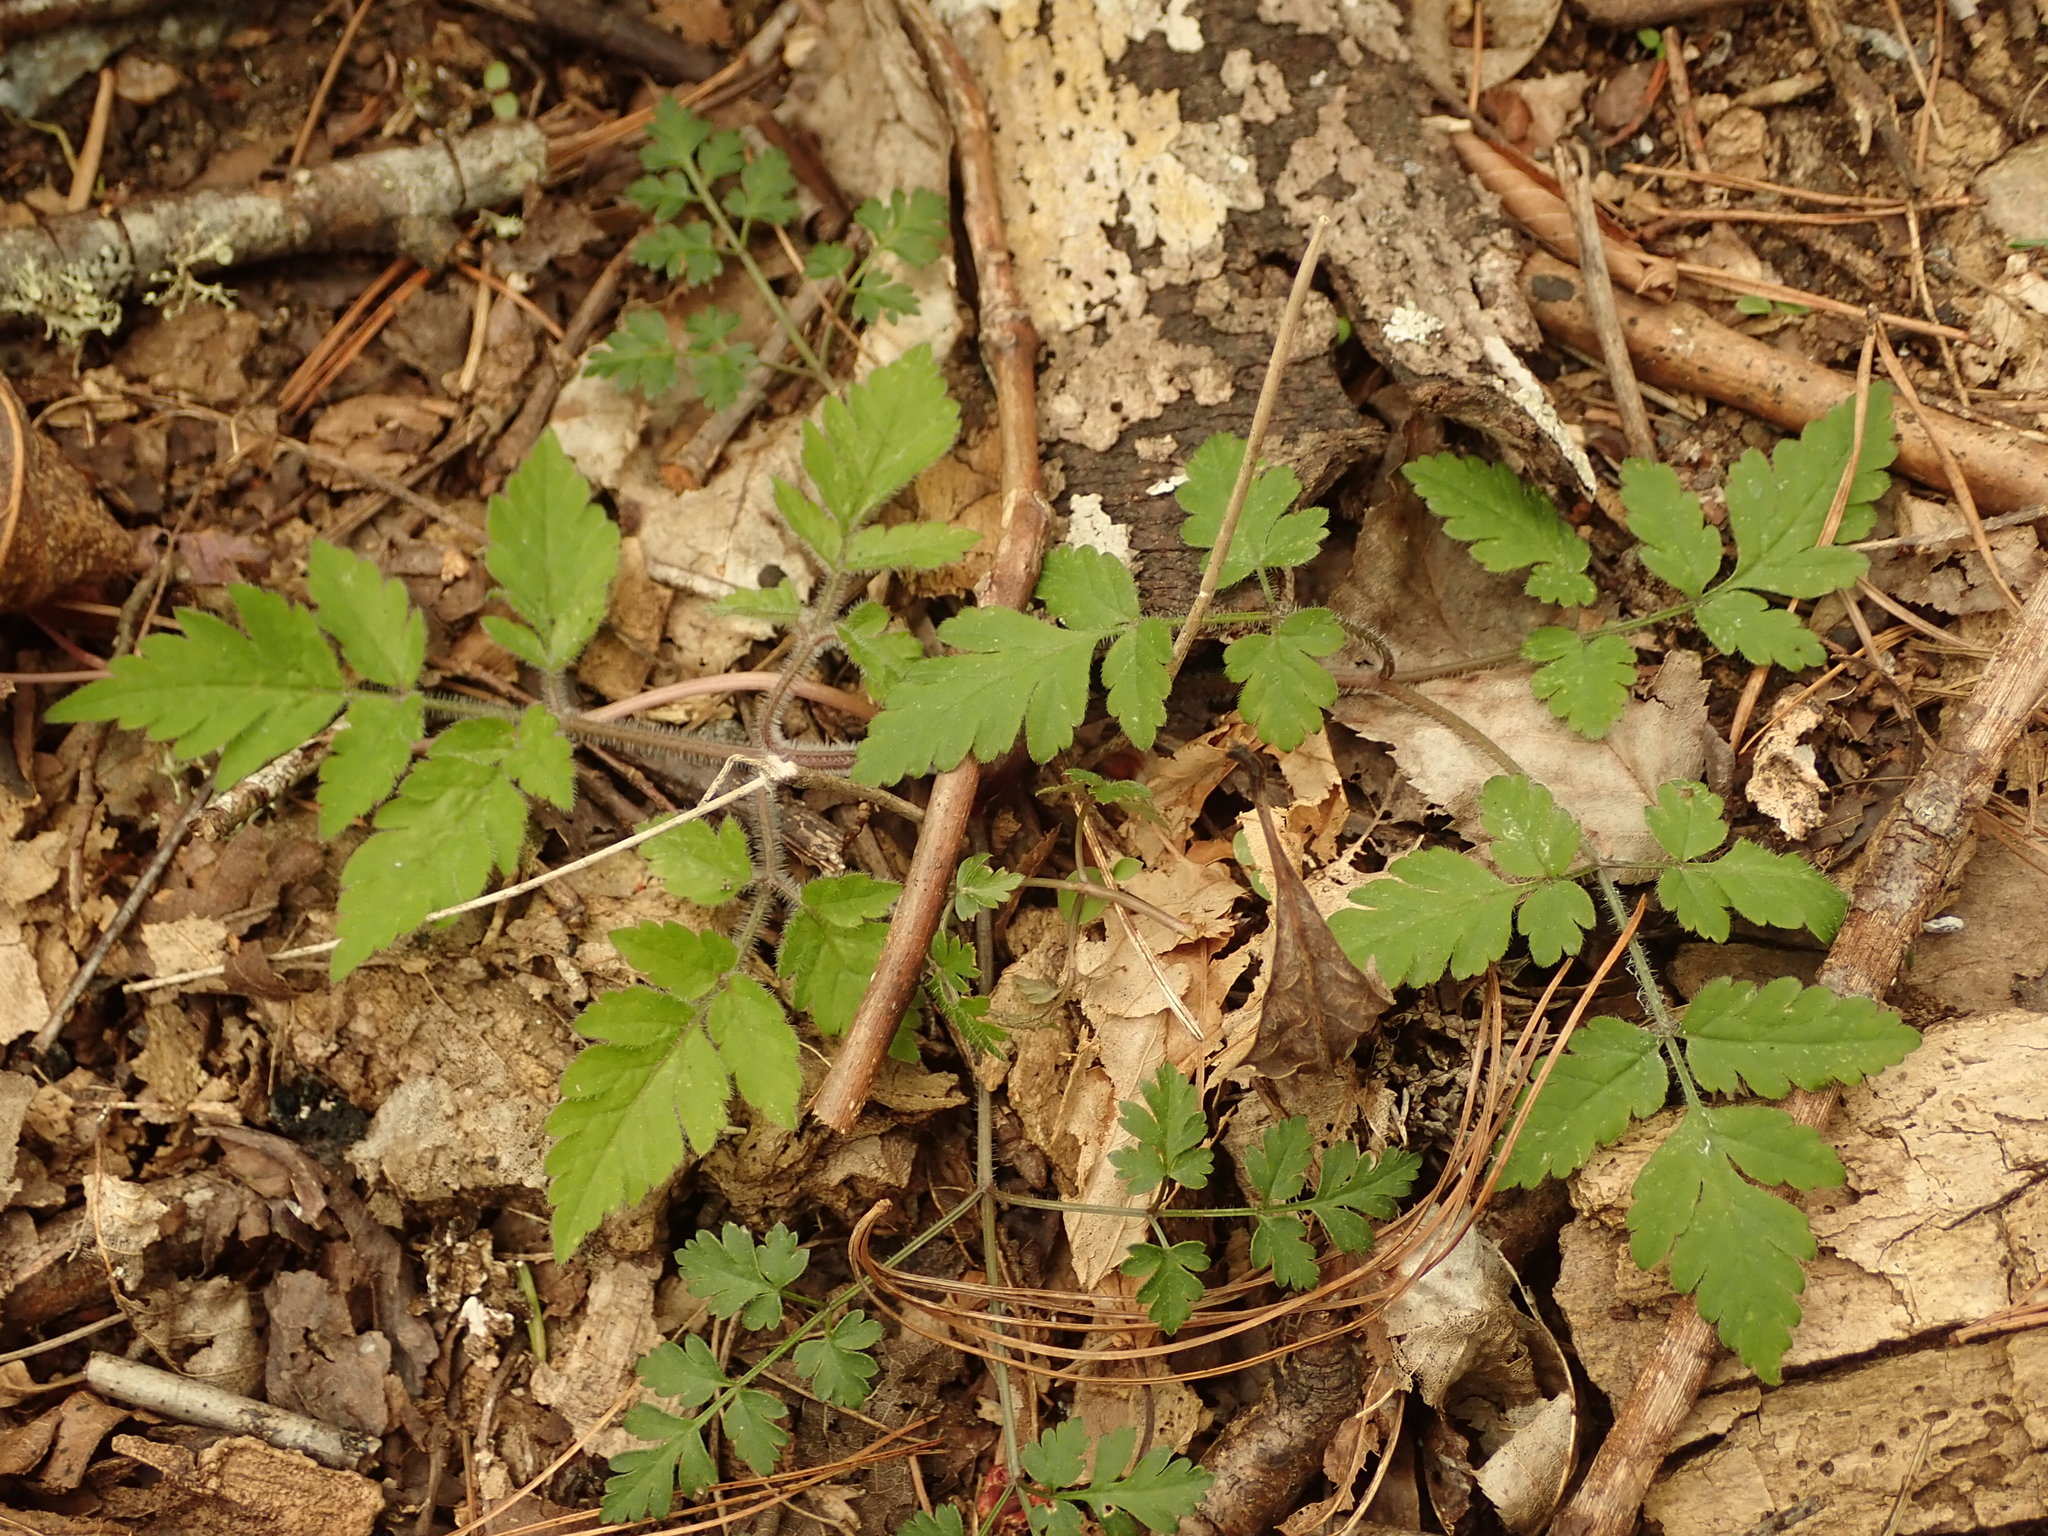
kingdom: Plantae
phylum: Tracheophyta
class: Magnoliopsida
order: Apiales
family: Apiaceae
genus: Osmorhiza
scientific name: Osmorhiza claytonii
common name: Hairy sweet cicely
